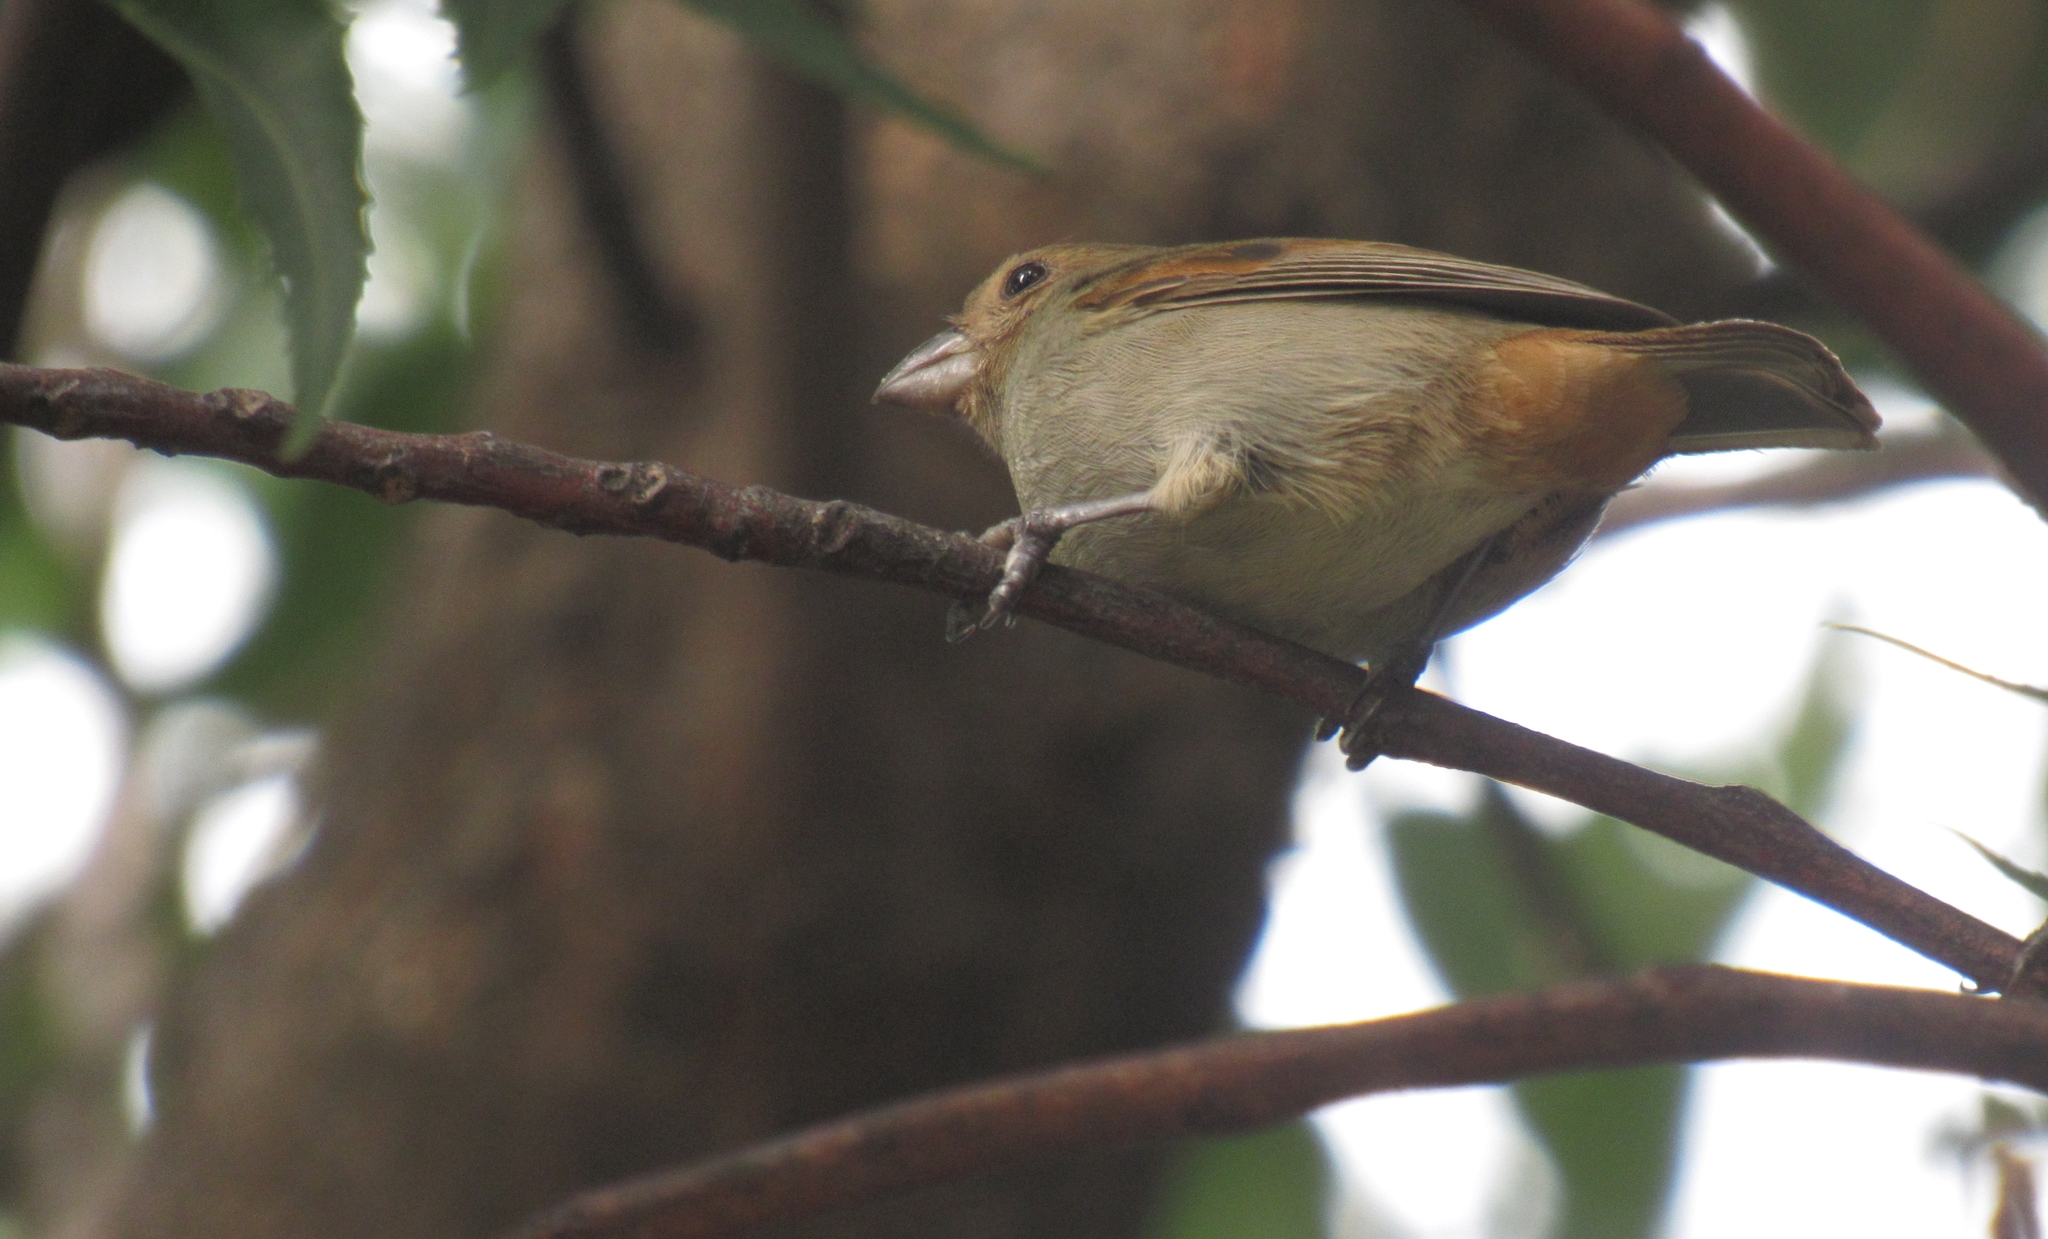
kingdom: Animalia
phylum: Chordata
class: Aves
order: Passeriformes
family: Thraupidae
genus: Loxigilla
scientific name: Loxigilla noctis
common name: Lesser antillean bullfinch
